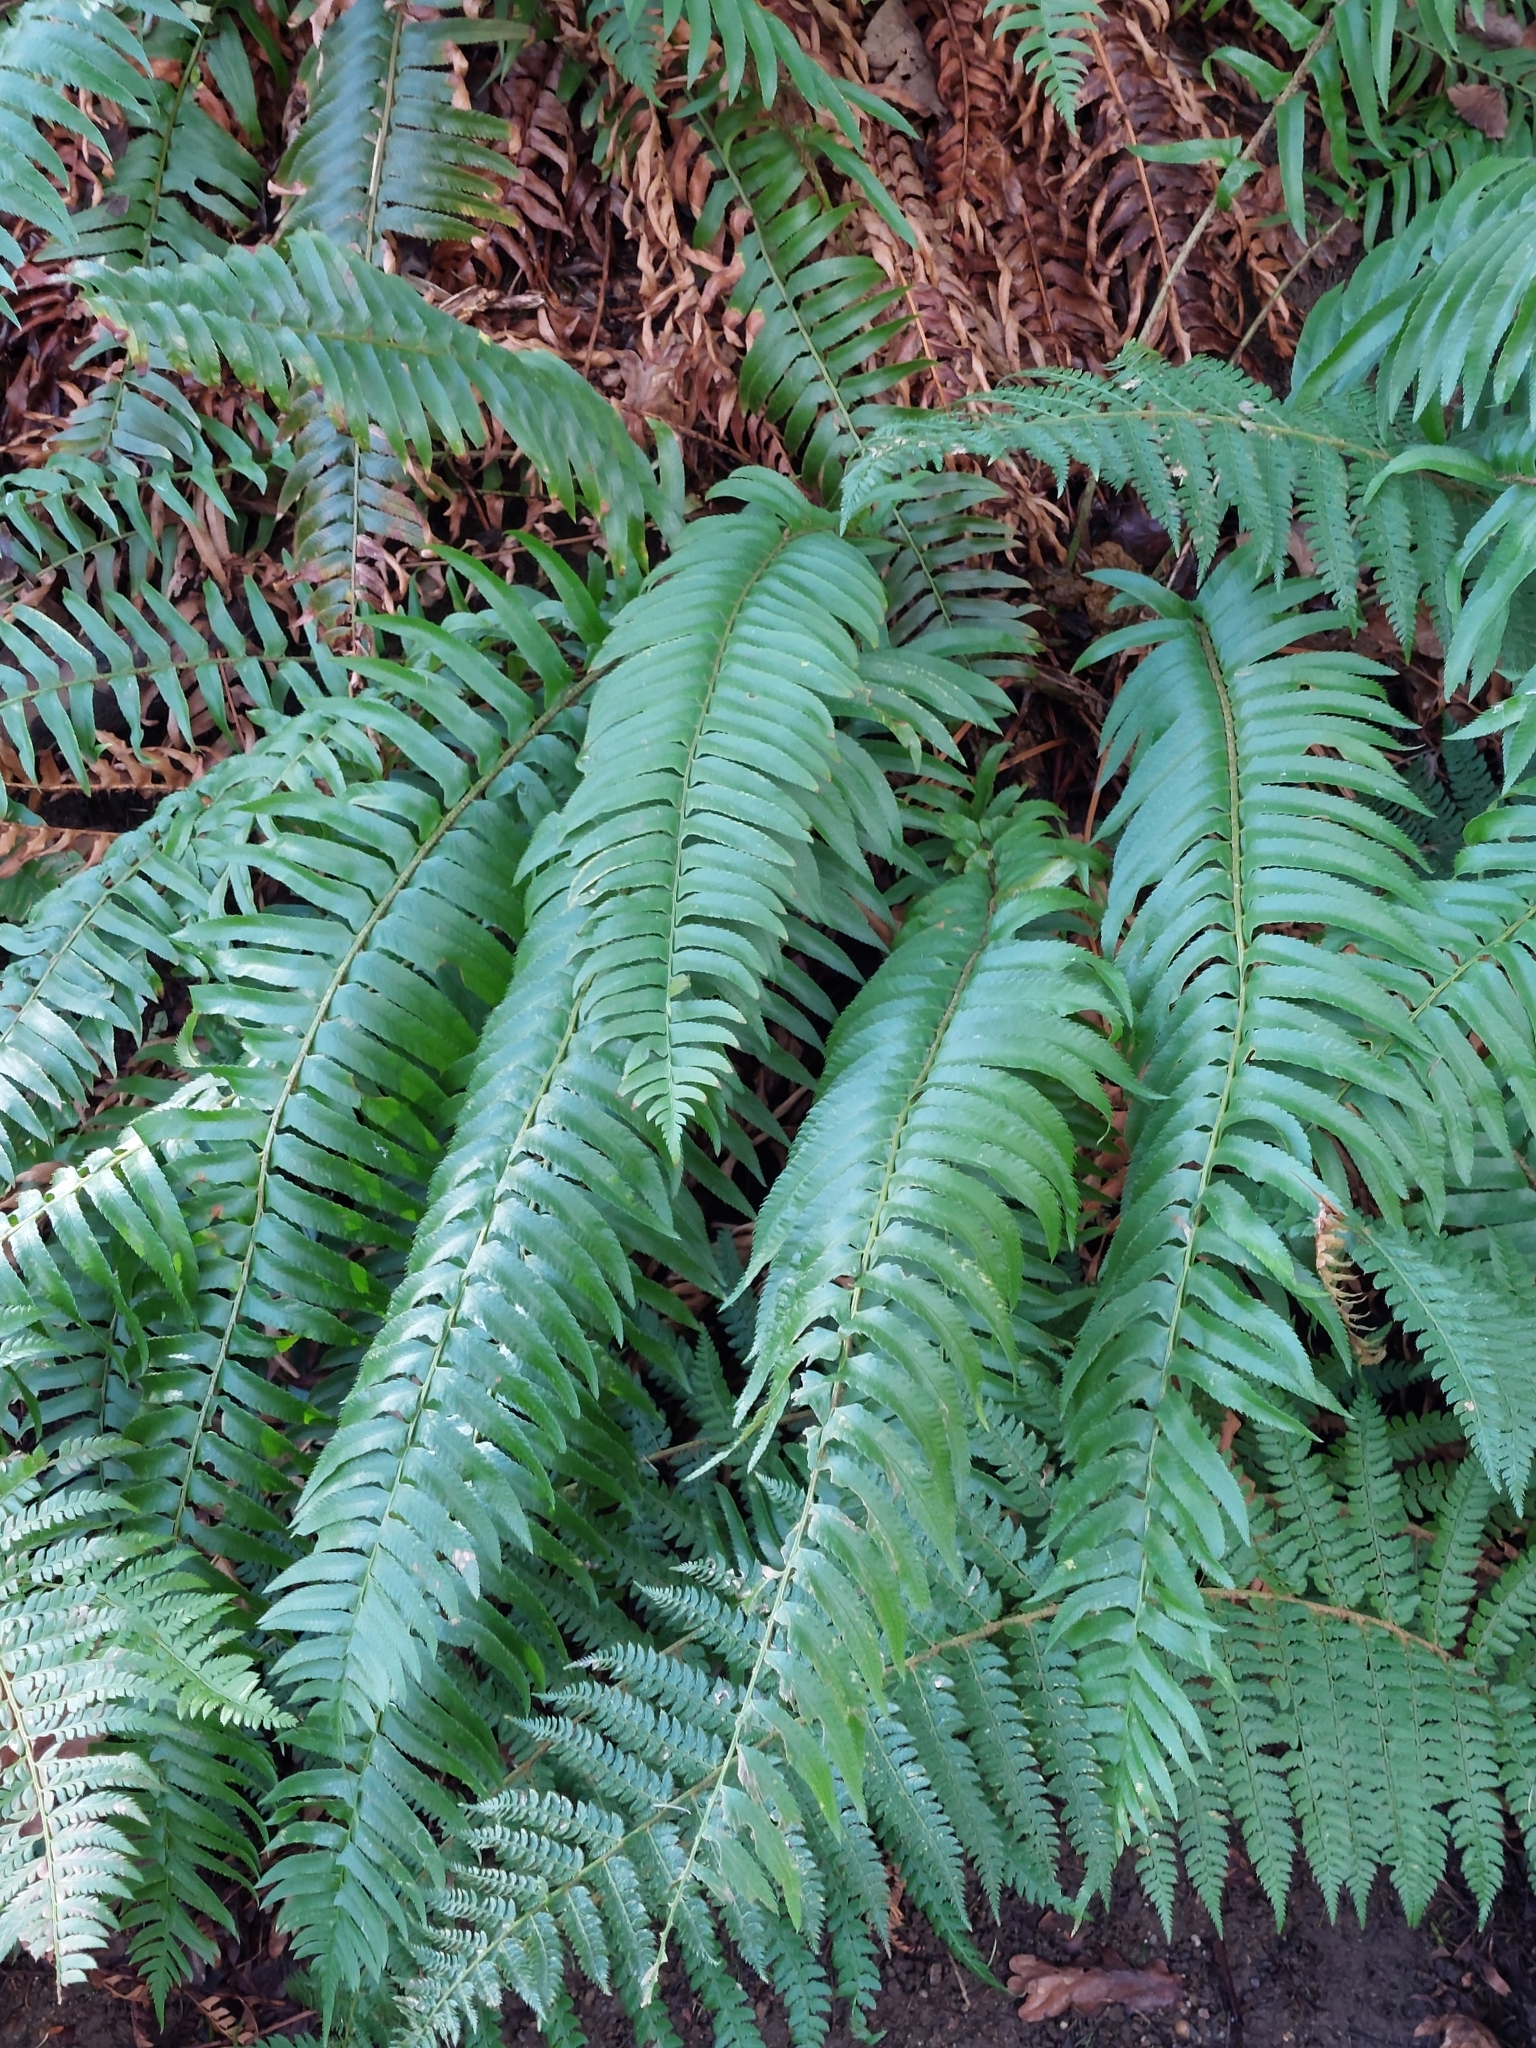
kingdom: Plantae
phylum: Tracheophyta
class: Polypodiopsida
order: Polypodiales
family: Dryopteridaceae
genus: Polystichum
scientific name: Polystichum munitum
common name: Western sword-fern
